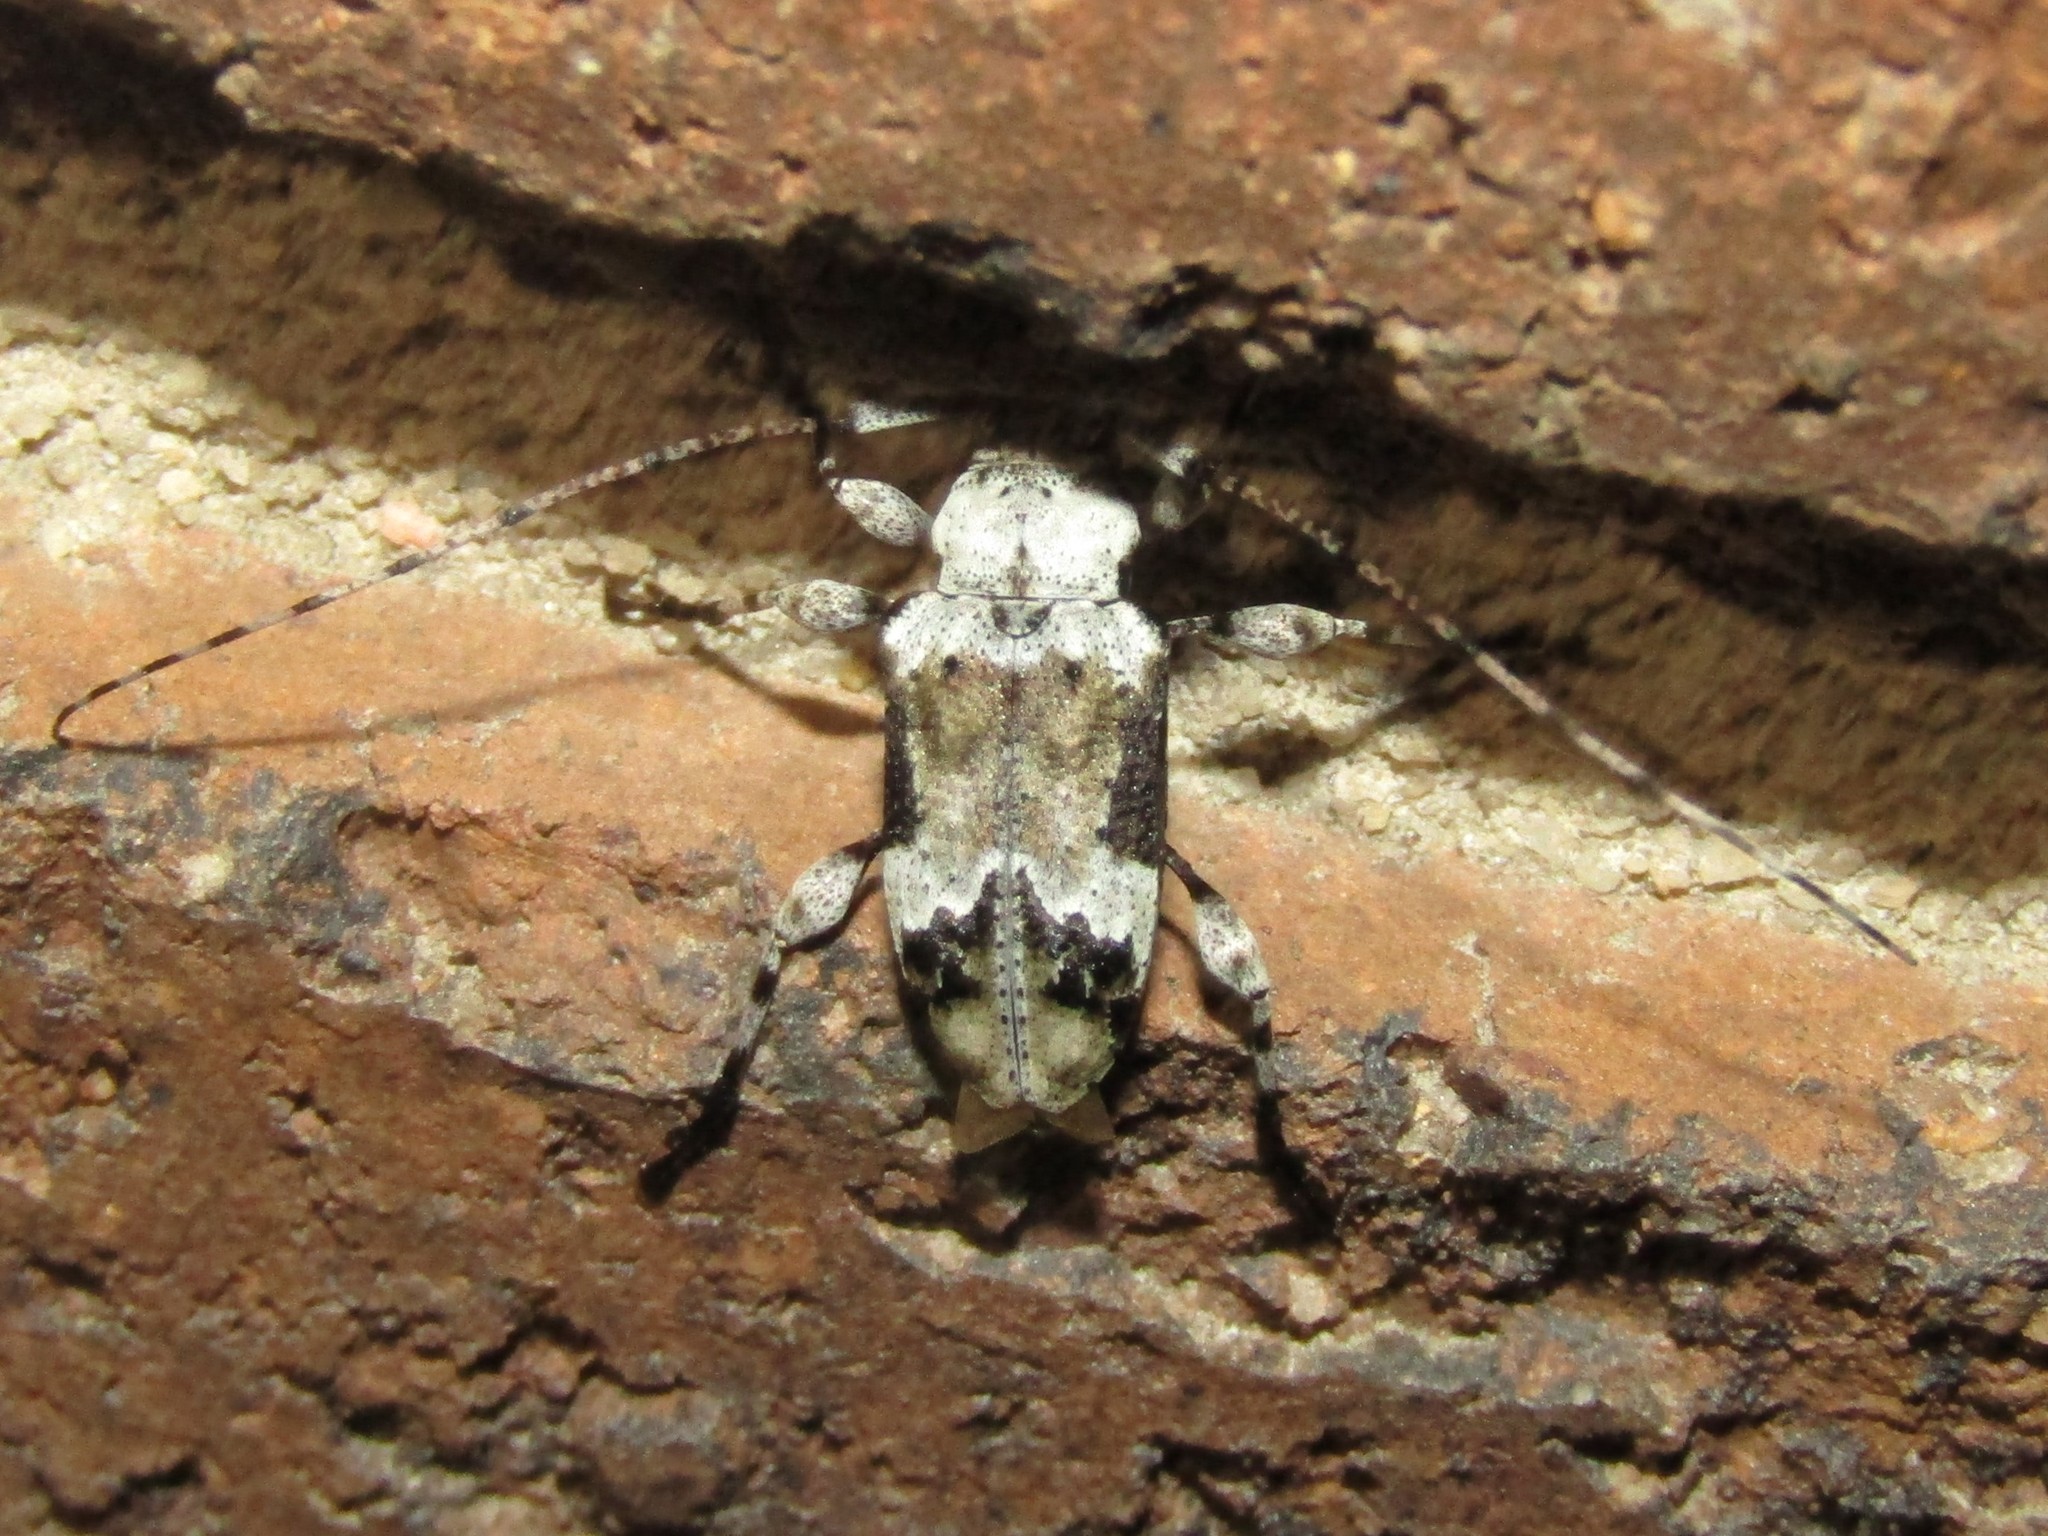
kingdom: Animalia
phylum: Arthropoda
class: Insecta
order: Coleoptera
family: Cerambycidae
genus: Leptostylopsis
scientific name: Leptostylopsis planidorsus
